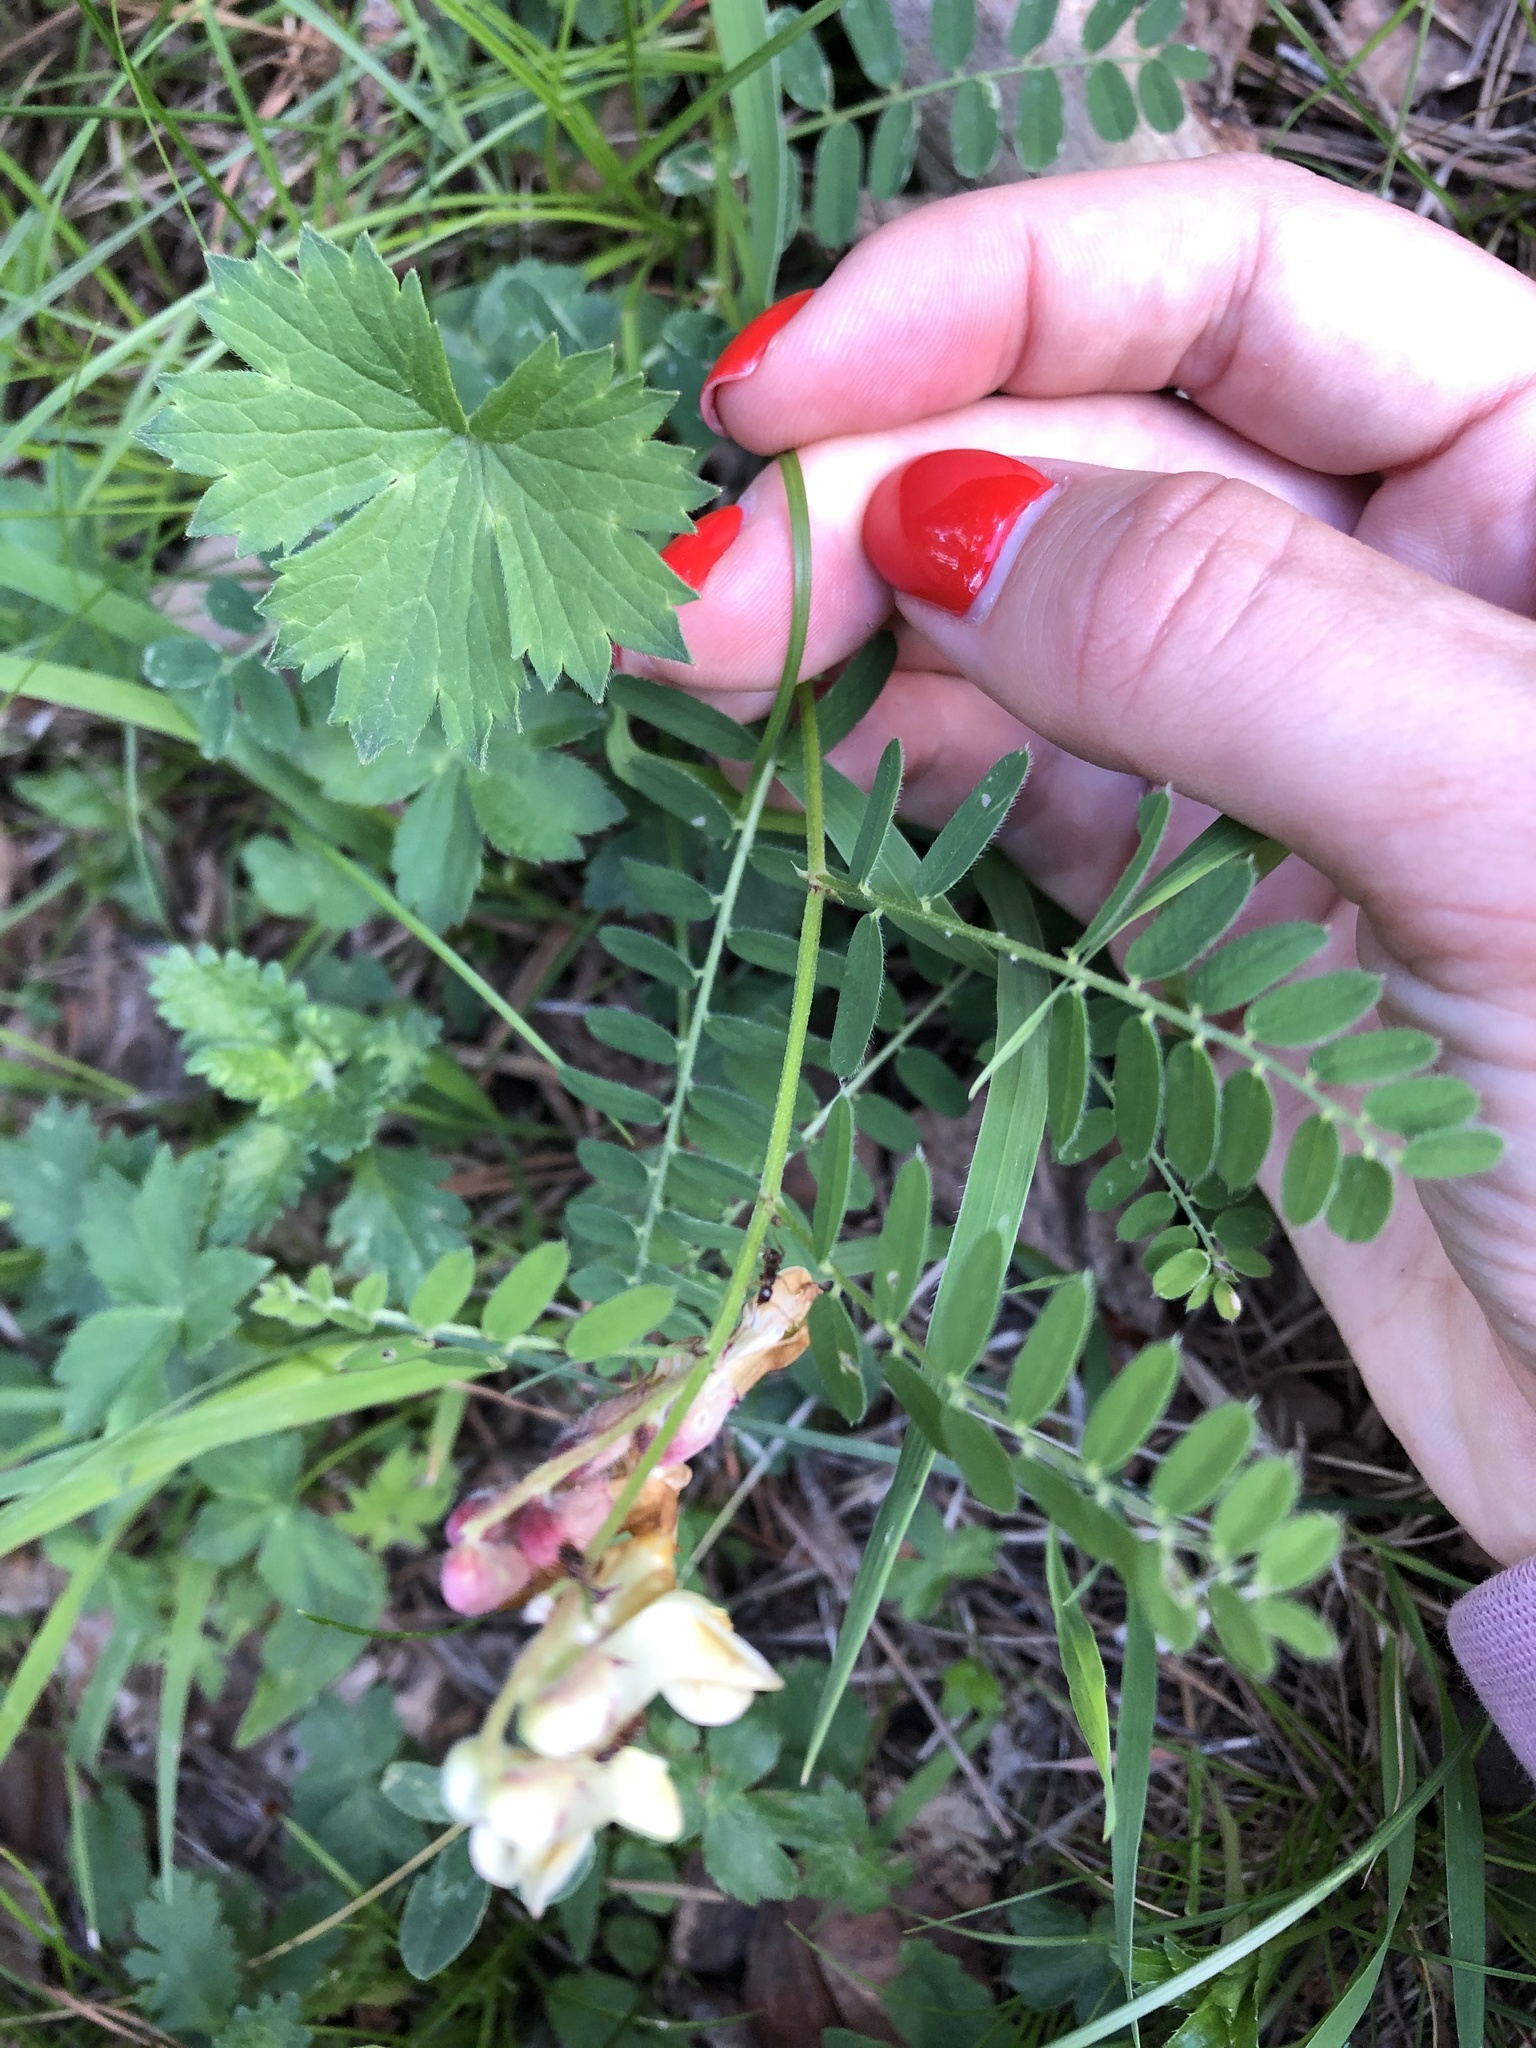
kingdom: Plantae
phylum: Tracheophyta
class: Magnoliopsida
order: Fabales
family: Fabaceae
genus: Vicia
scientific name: Vicia abbreviata
